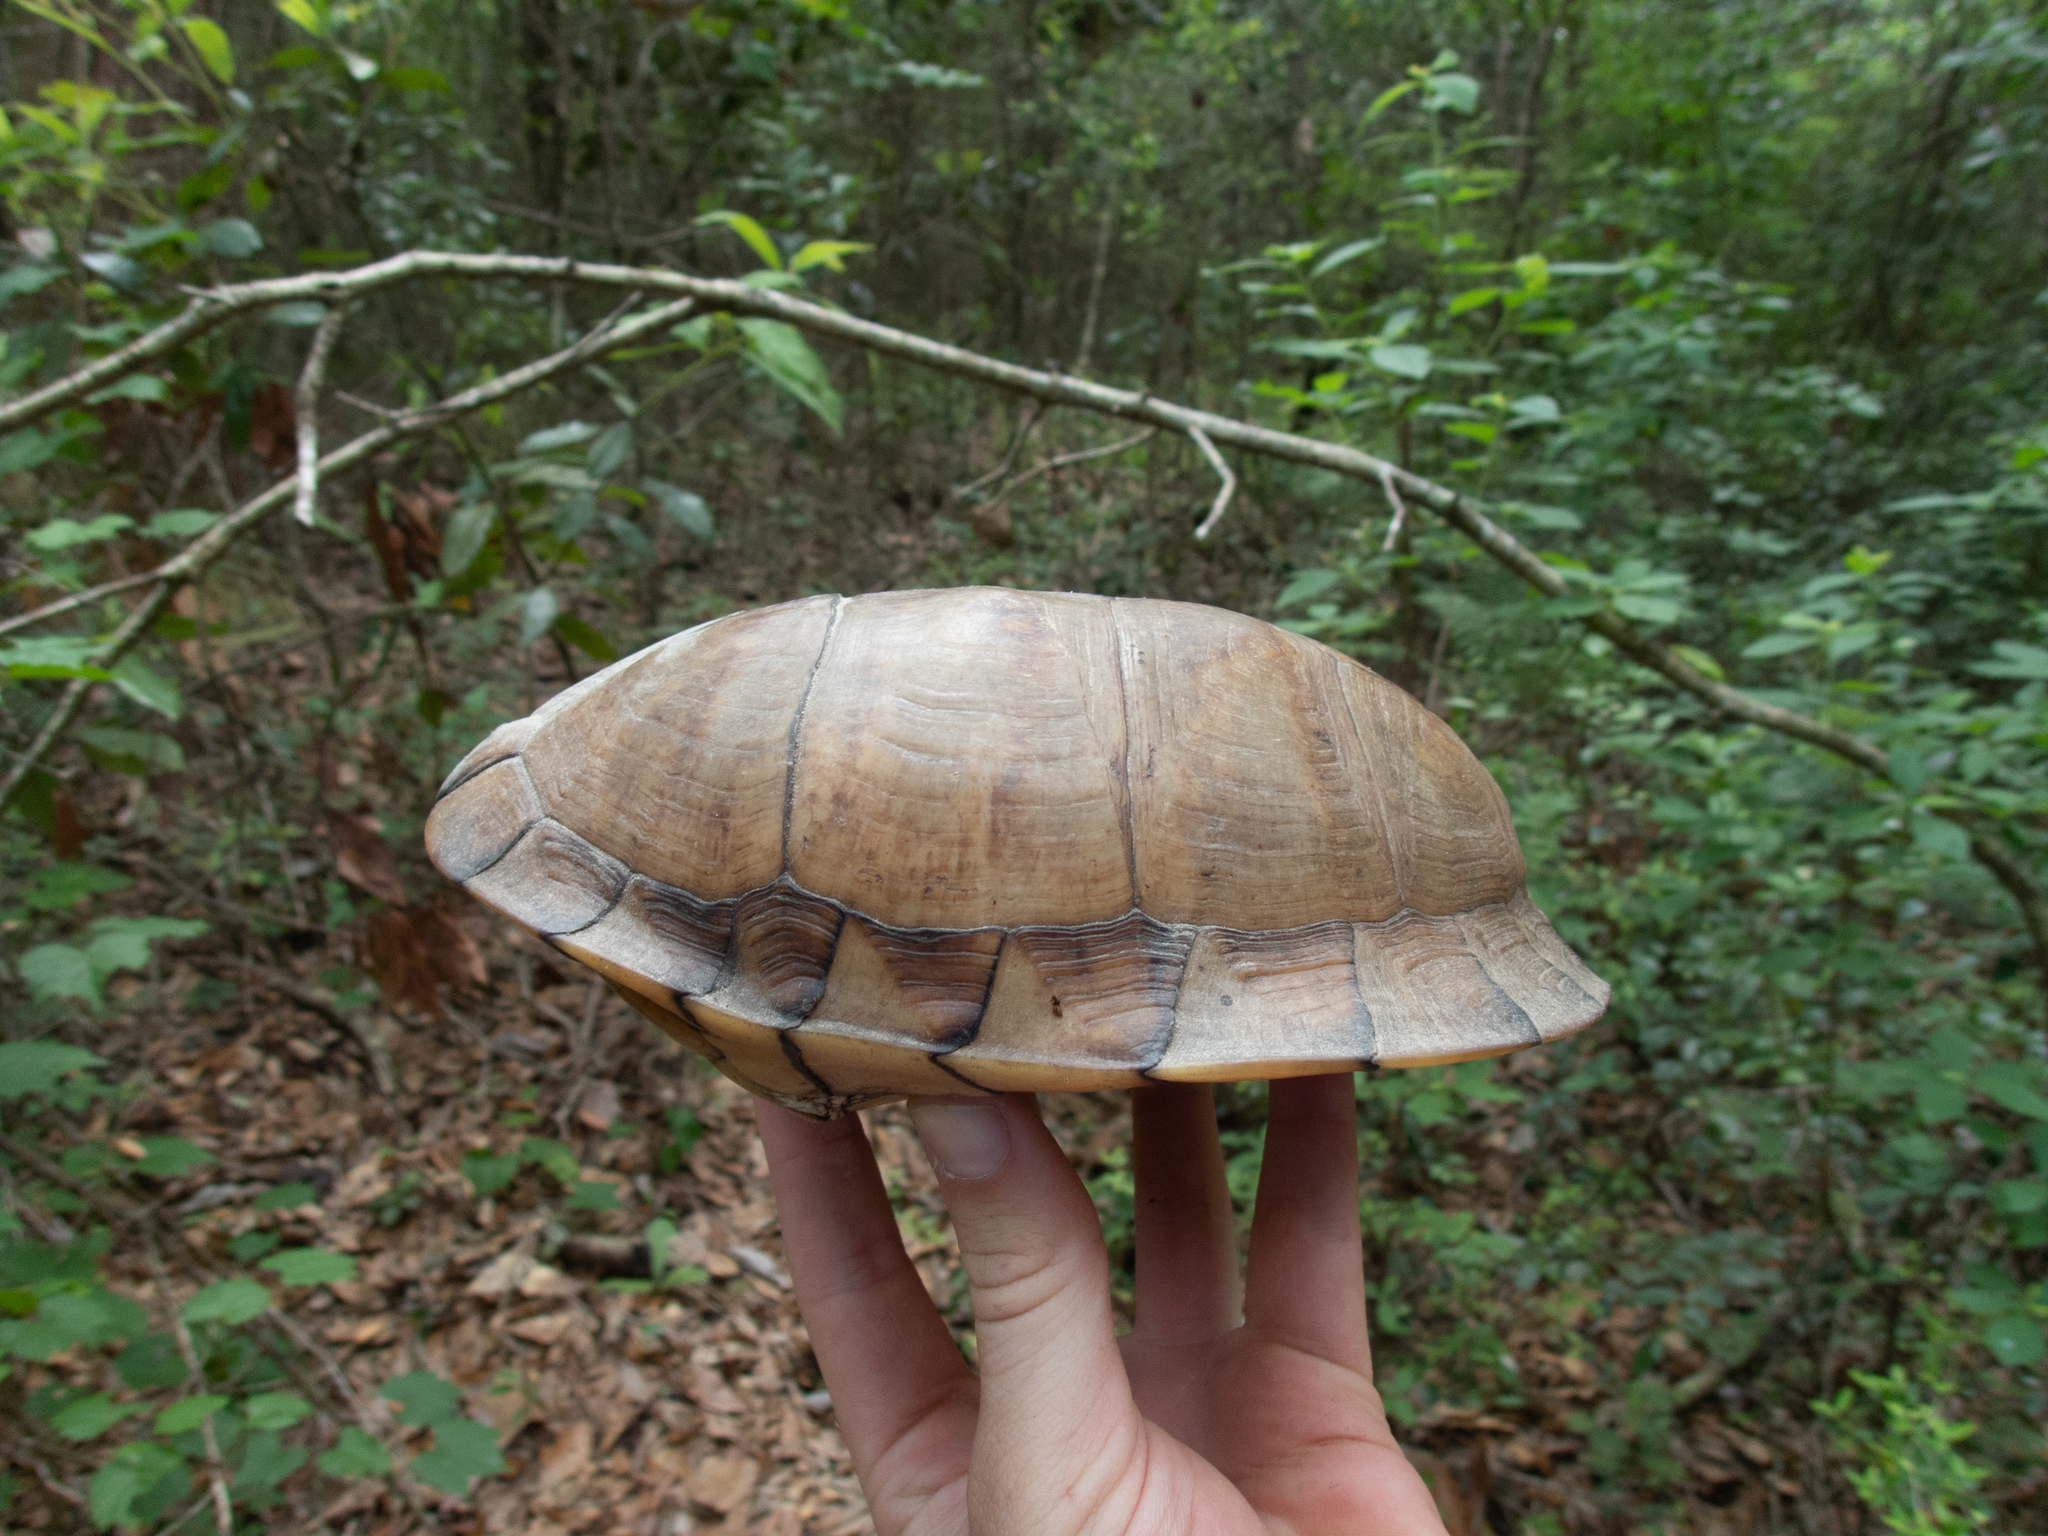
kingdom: Animalia
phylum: Chordata
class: Testudines
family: Emydidae
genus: Terrapene
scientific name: Terrapene carolina
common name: Common box turtle
